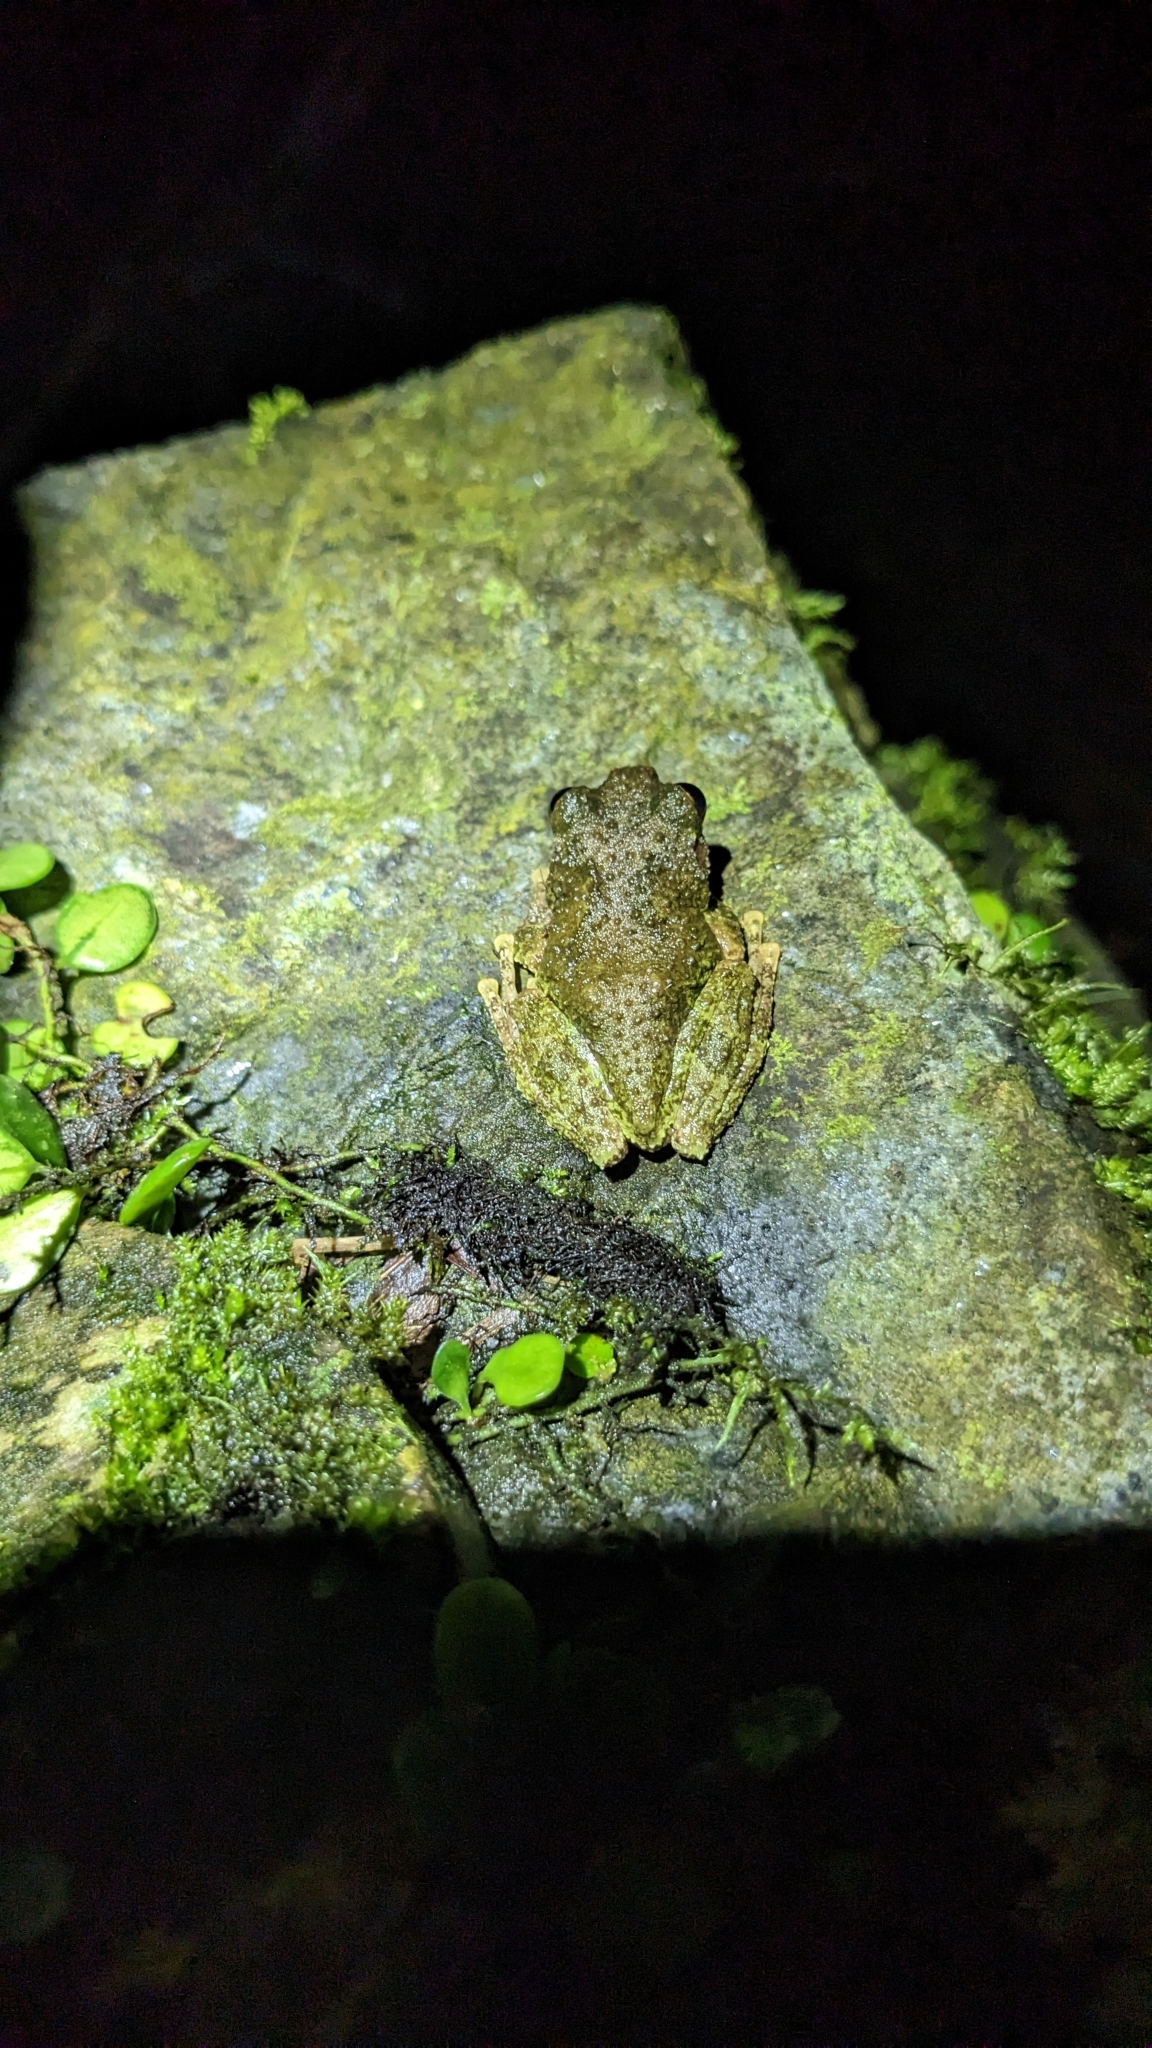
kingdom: Animalia
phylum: Chordata
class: Amphibia
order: Anura
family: Rhacophoridae
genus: Kurixalus
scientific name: Kurixalus eiffingeri
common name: Eiffinger’s treefrog
